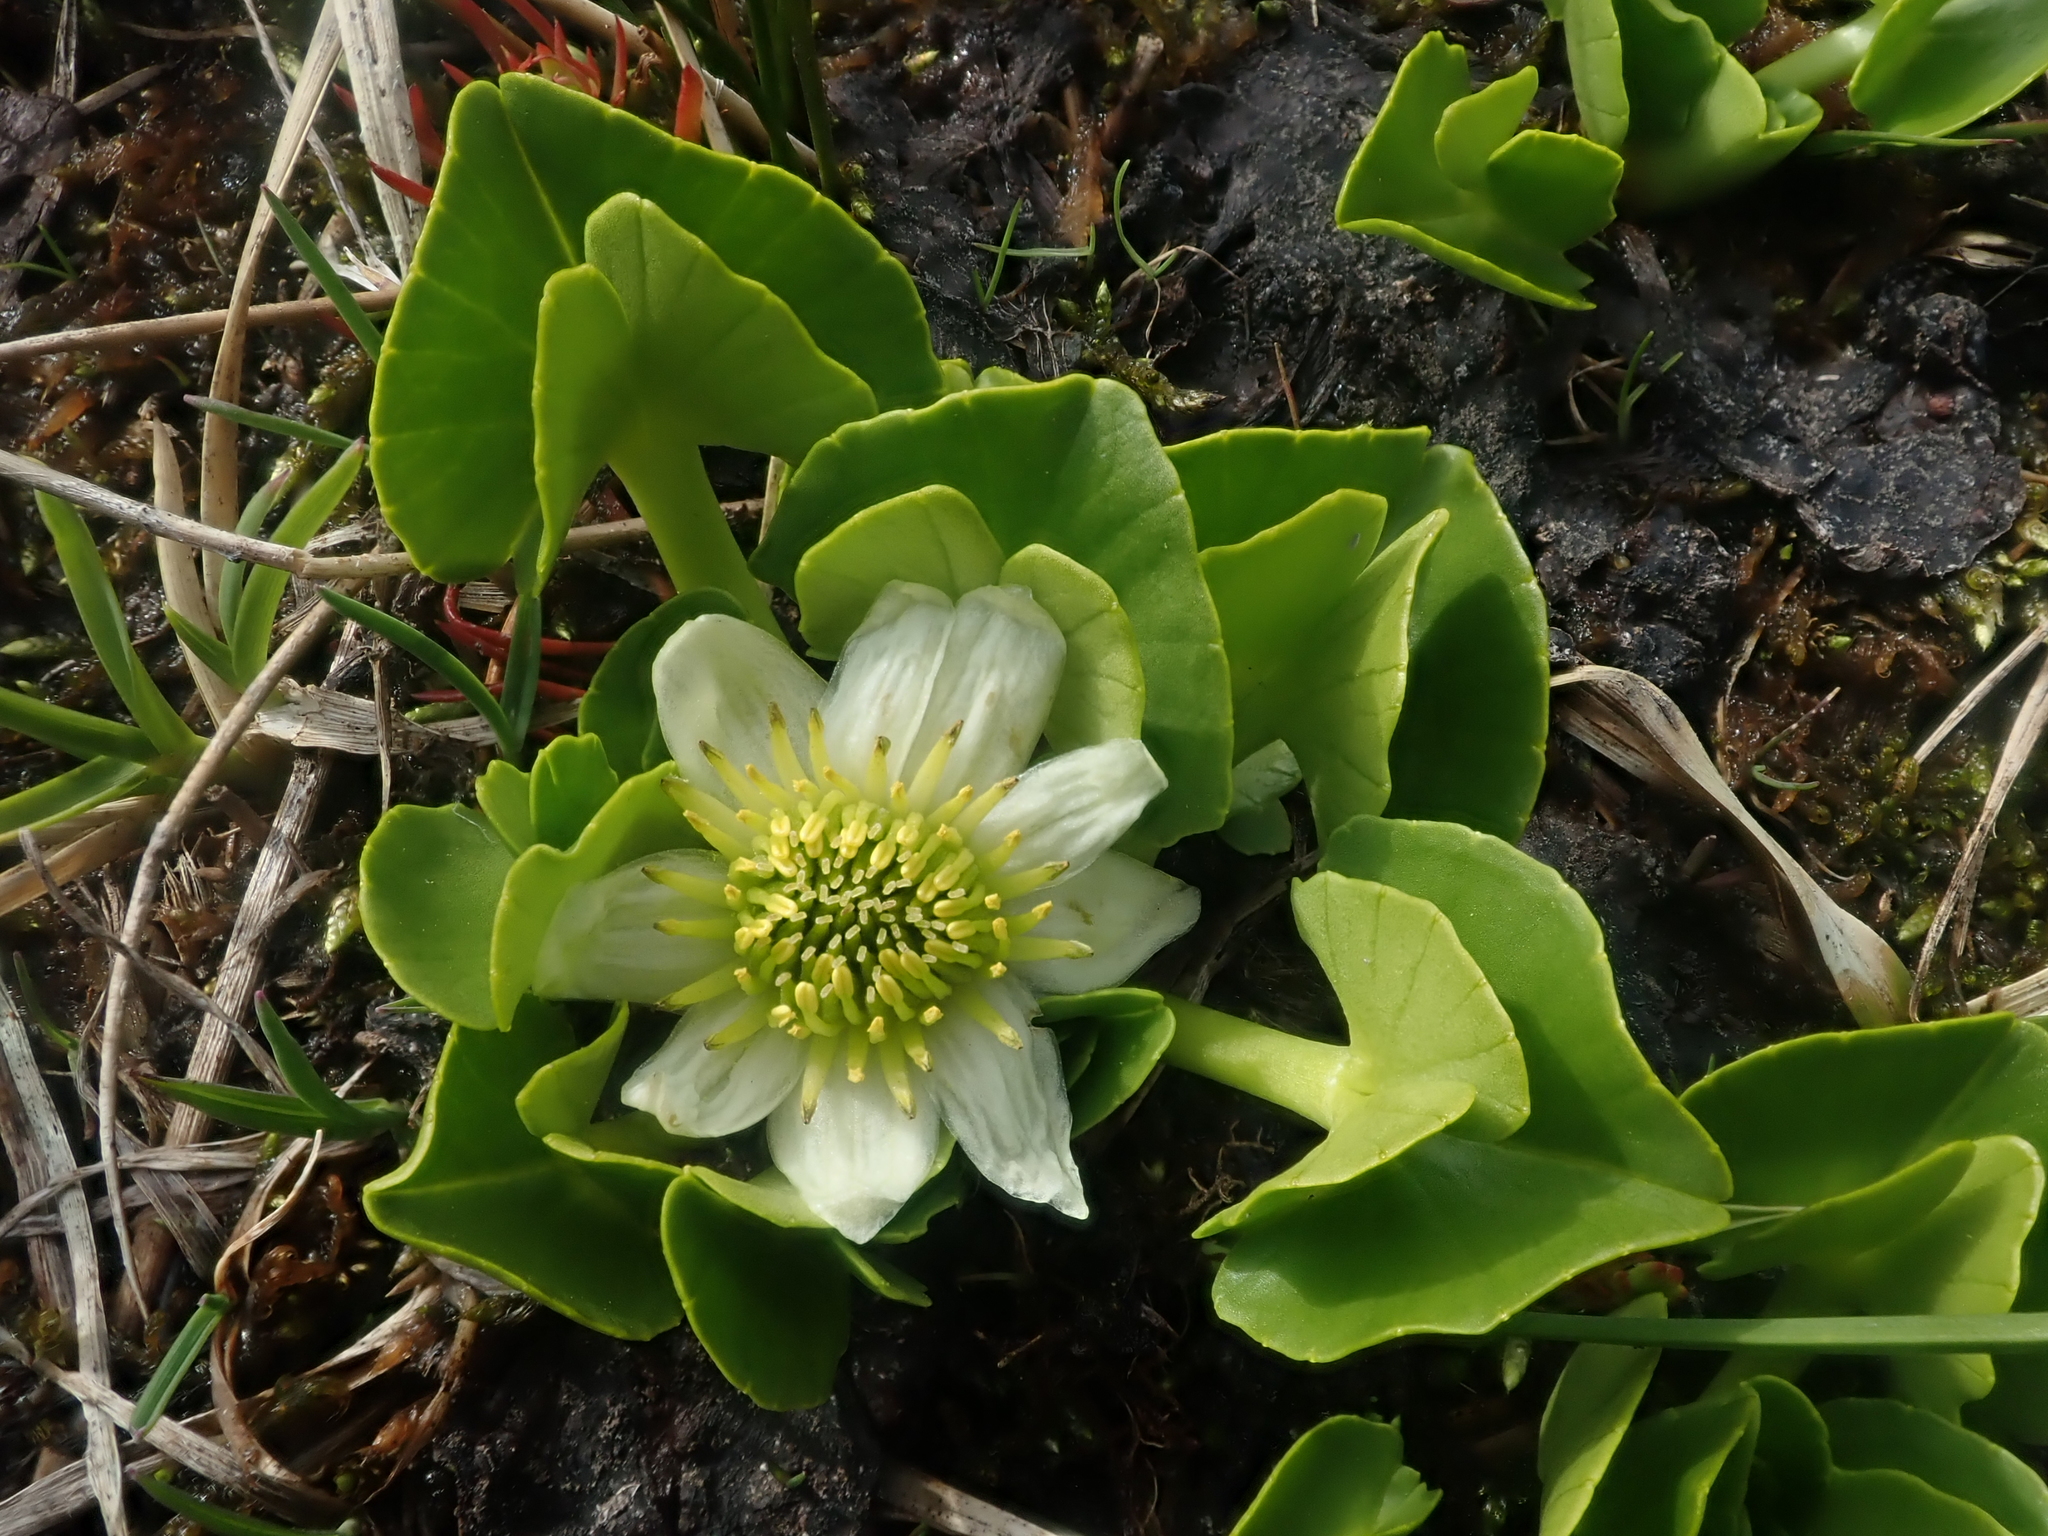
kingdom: Plantae
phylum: Tracheophyta
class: Magnoliopsida
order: Ranunculales
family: Ranunculaceae
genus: Caltha
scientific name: Caltha sagittata
